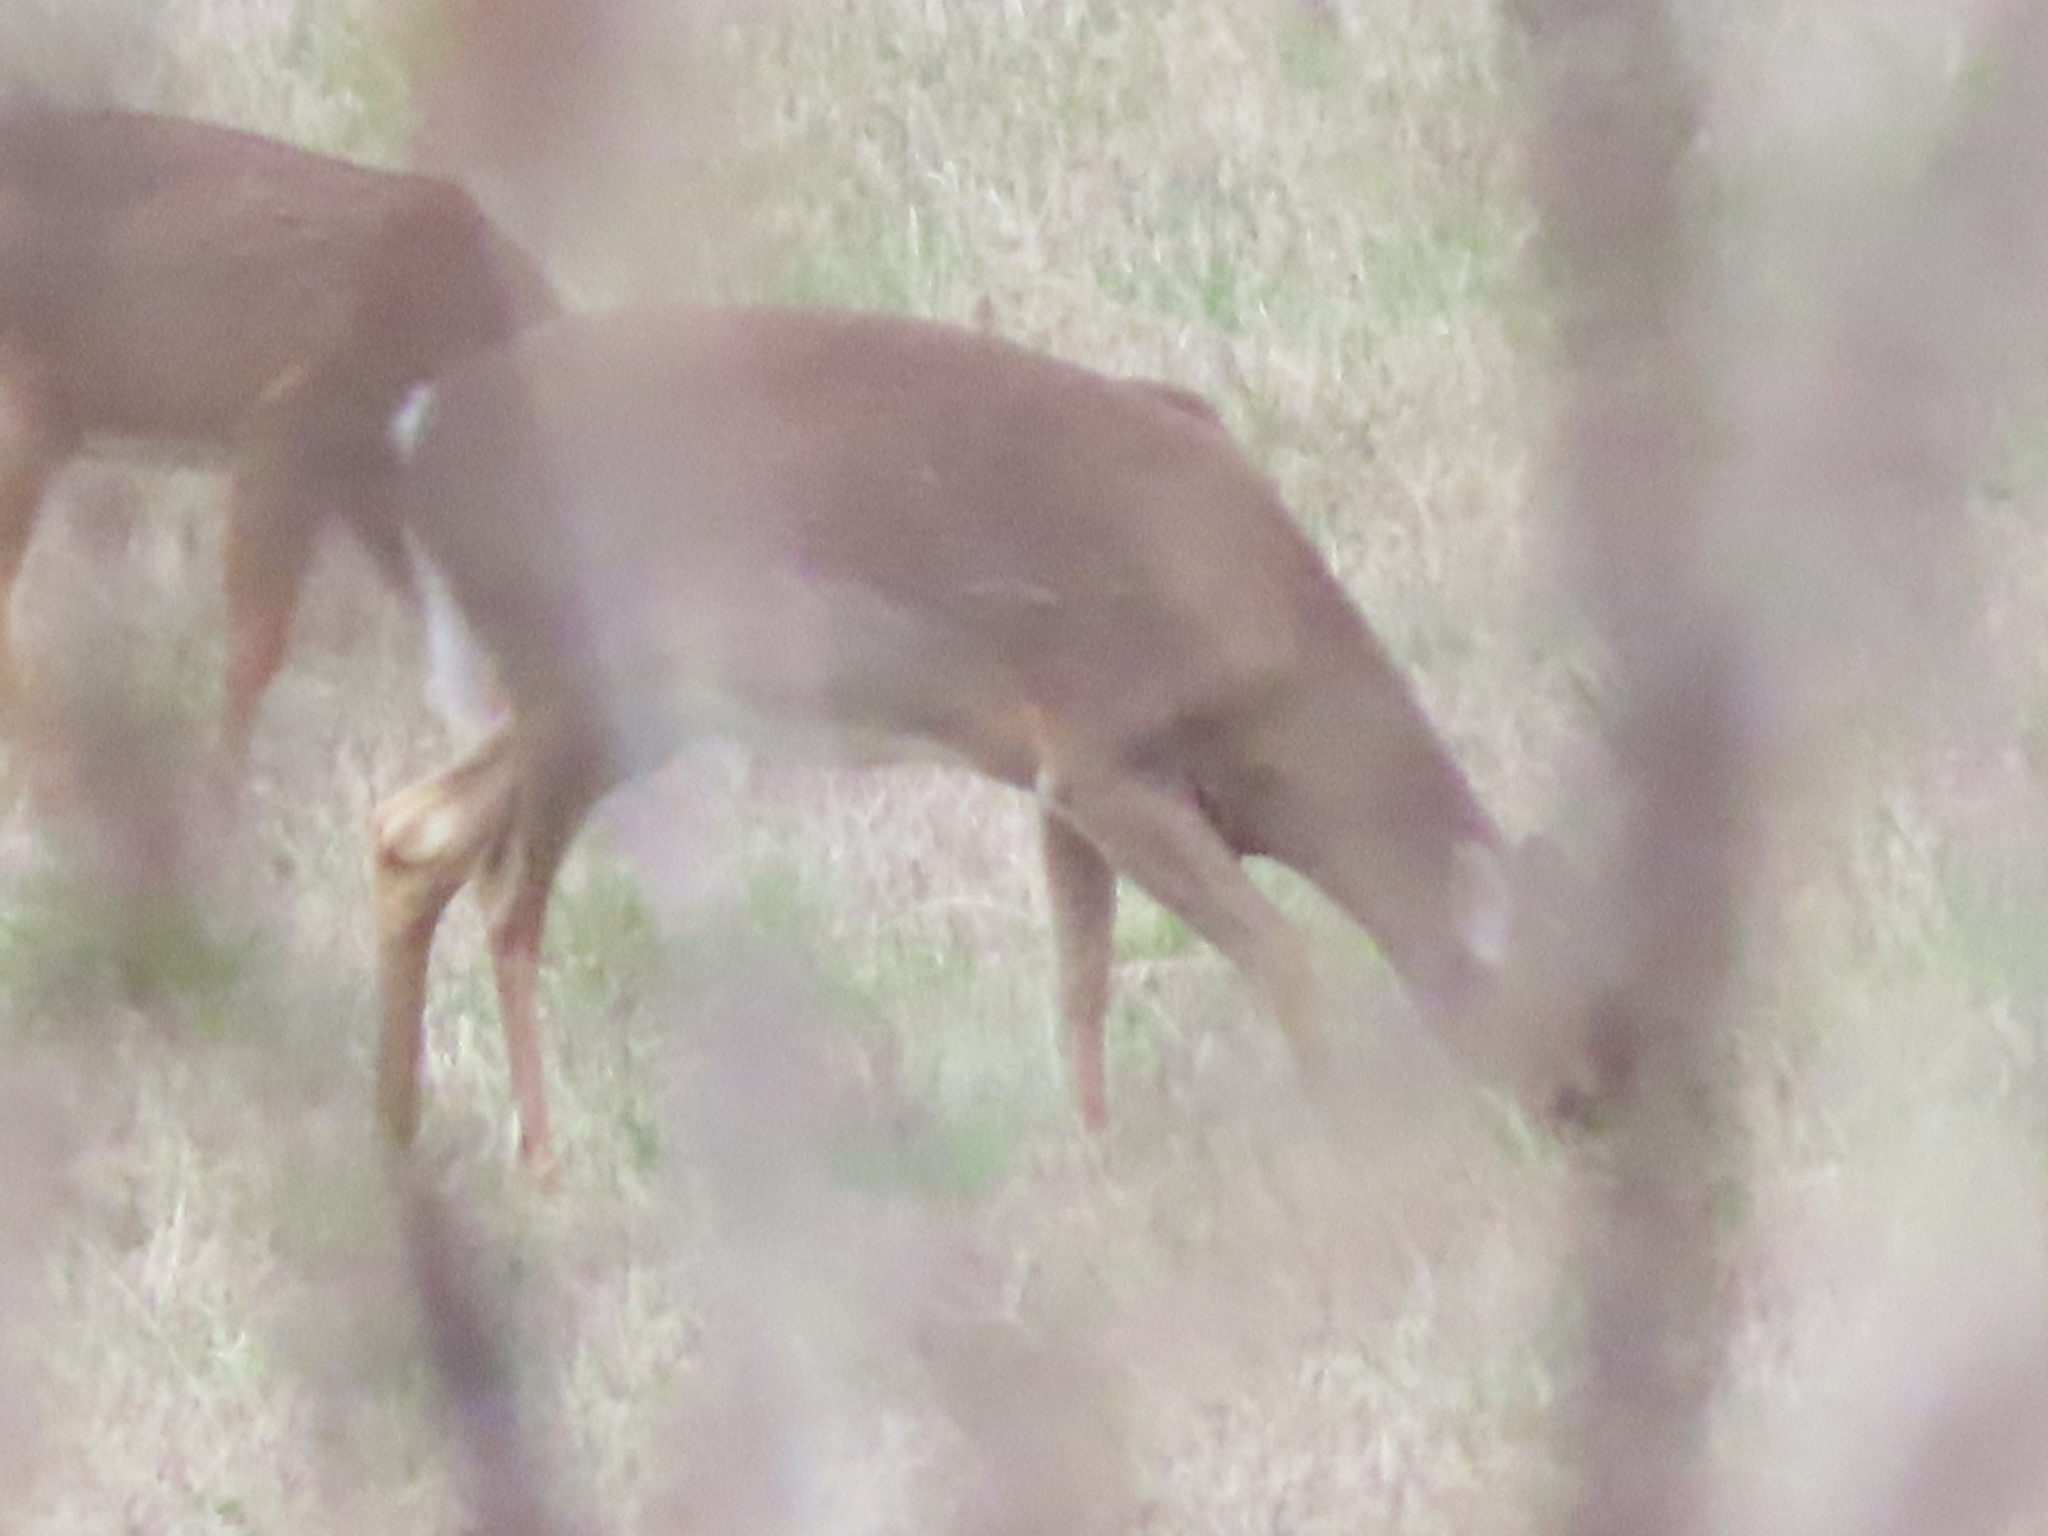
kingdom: Animalia
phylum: Chordata
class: Mammalia
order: Artiodactyla
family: Cervidae
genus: Odocoileus
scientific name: Odocoileus virginianus
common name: White-tailed deer
